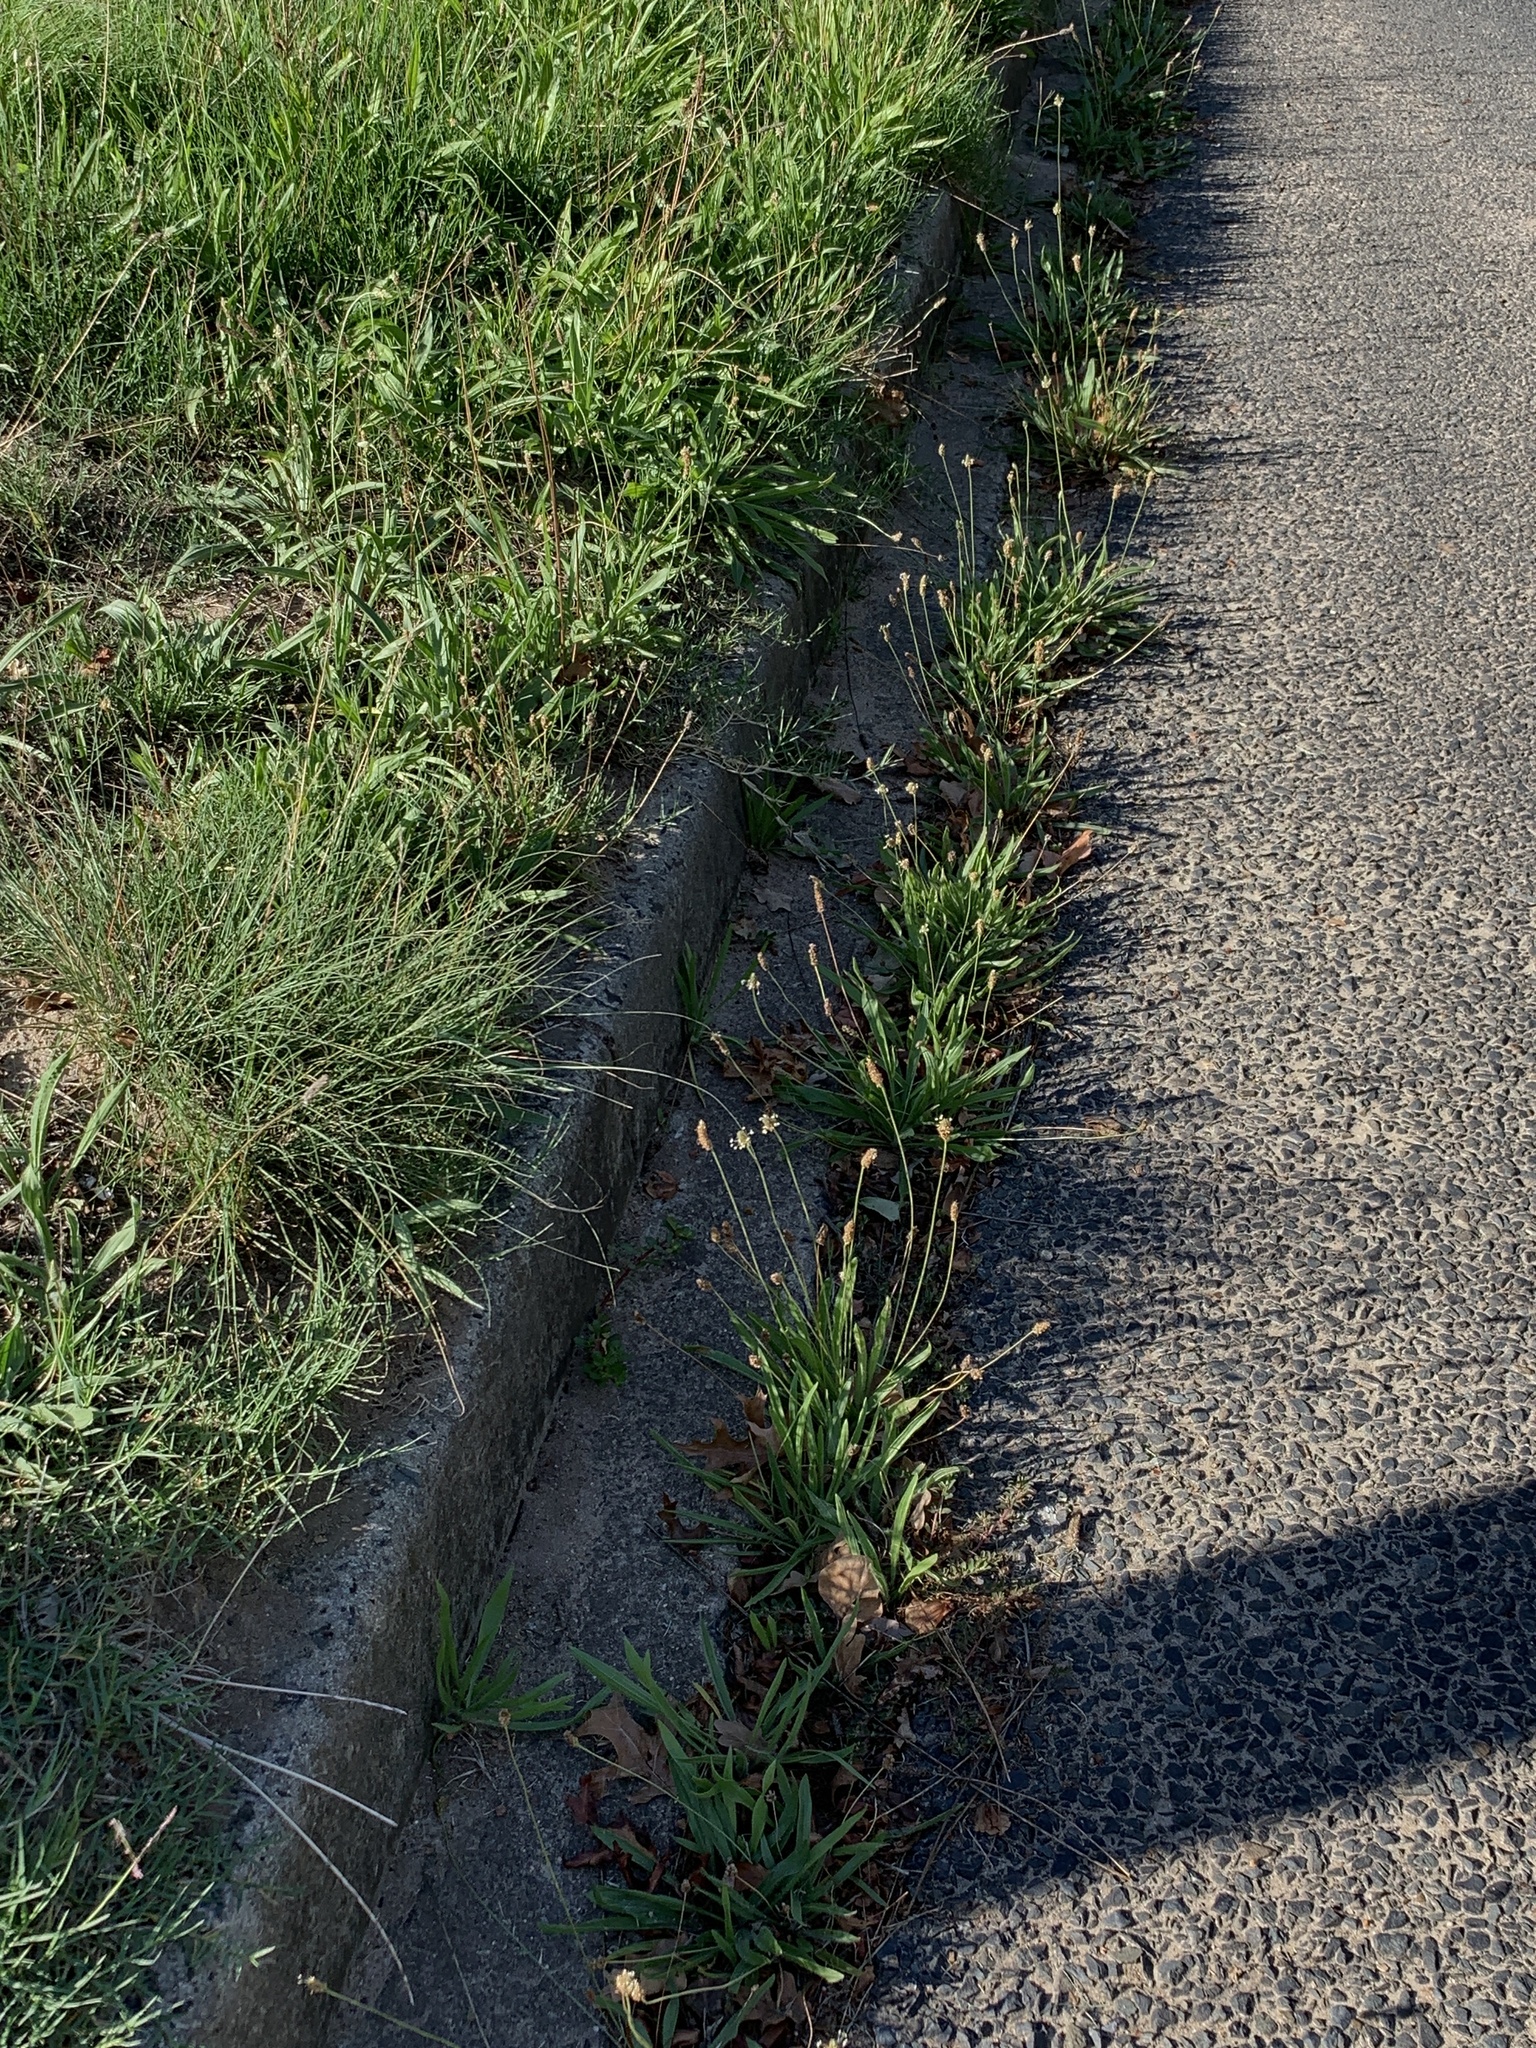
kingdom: Plantae
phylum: Tracheophyta
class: Magnoliopsida
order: Lamiales
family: Plantaginaceae
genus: Plantago
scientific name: Plantago lanceolata
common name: Ribwort plantain
